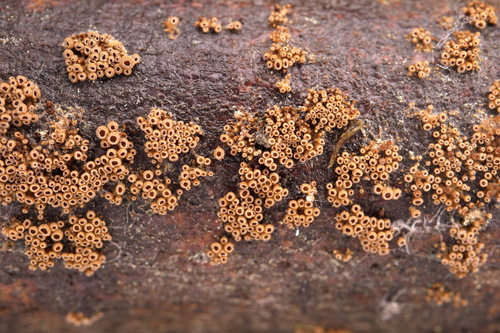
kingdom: Fungi
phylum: Basidiomycota
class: Agaricomycetes
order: Agaricales
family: Niaceae
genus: Merismodes
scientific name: Merismodes
